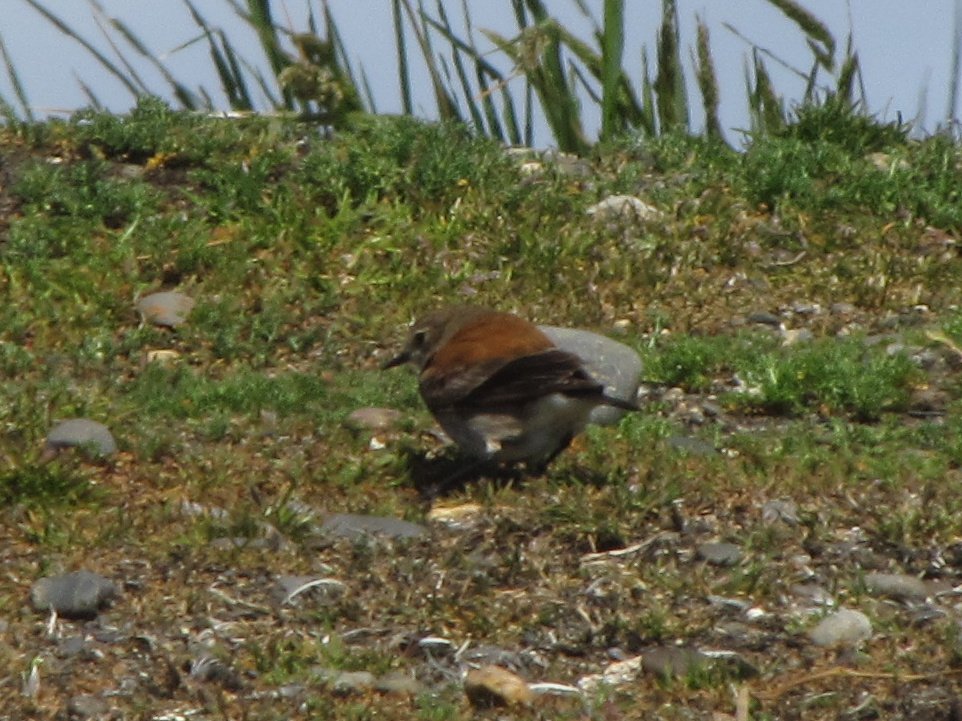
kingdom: Animalia
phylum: Chordata
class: Aves
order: Passeriformes
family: Tyrannidae
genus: Lessonia
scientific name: Lessonia rufa
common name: Austral negrito
